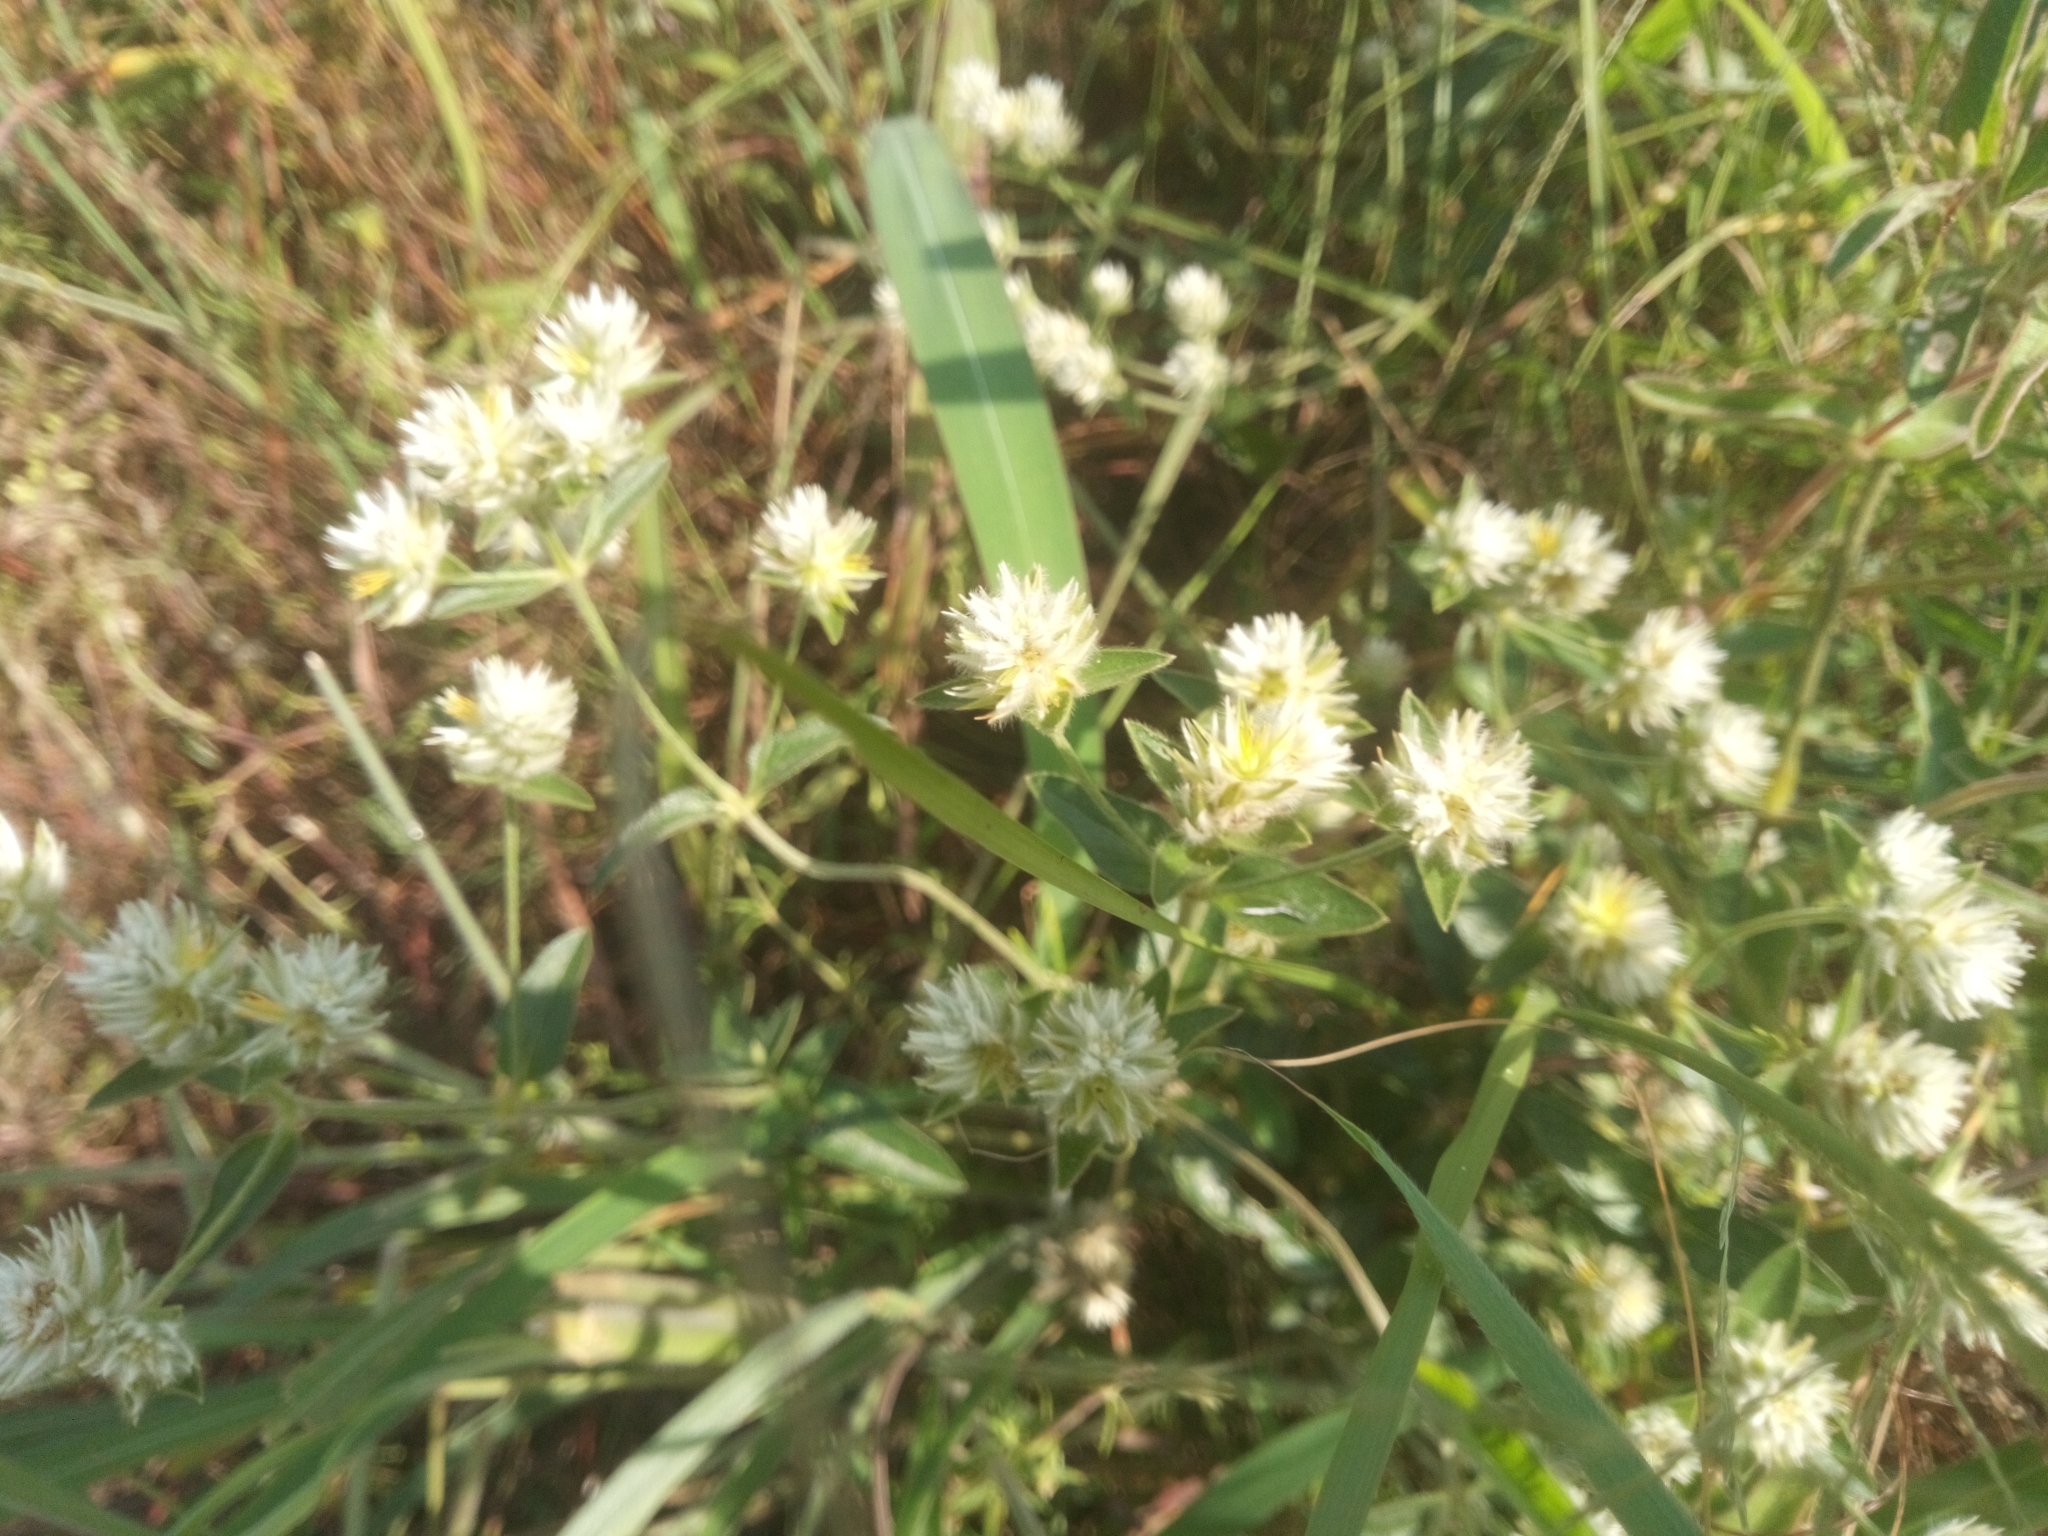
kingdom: Plantae
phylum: Tracheophyta
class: Magnoliopsida
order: Caryophyllales
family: Amaranthaceae
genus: Gomphrena
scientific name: Gomphrena celosioides
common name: Gomphrena-weed
